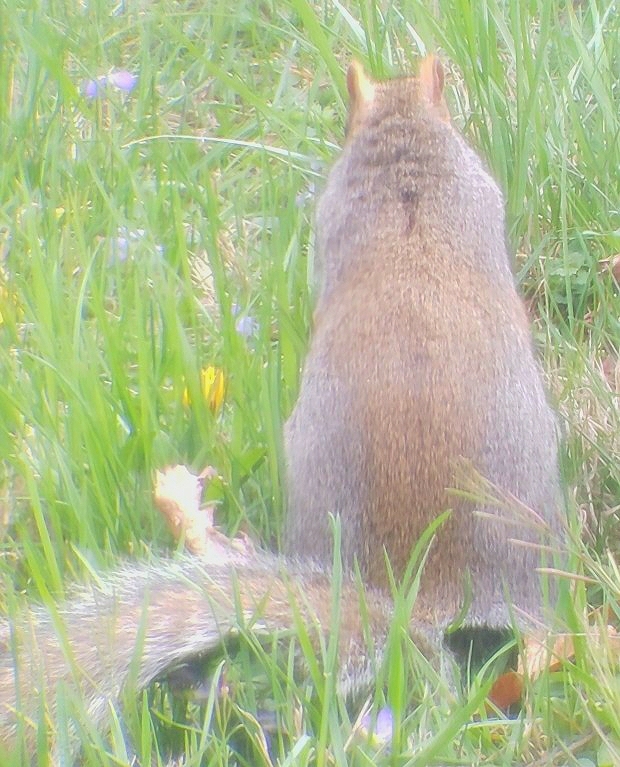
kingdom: Animalia
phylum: Chordata
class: Mammalia
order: Rodentia
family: Sciuridae
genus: Sciurus
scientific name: Sciurus carolinensis
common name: Eastern gray squirrel
